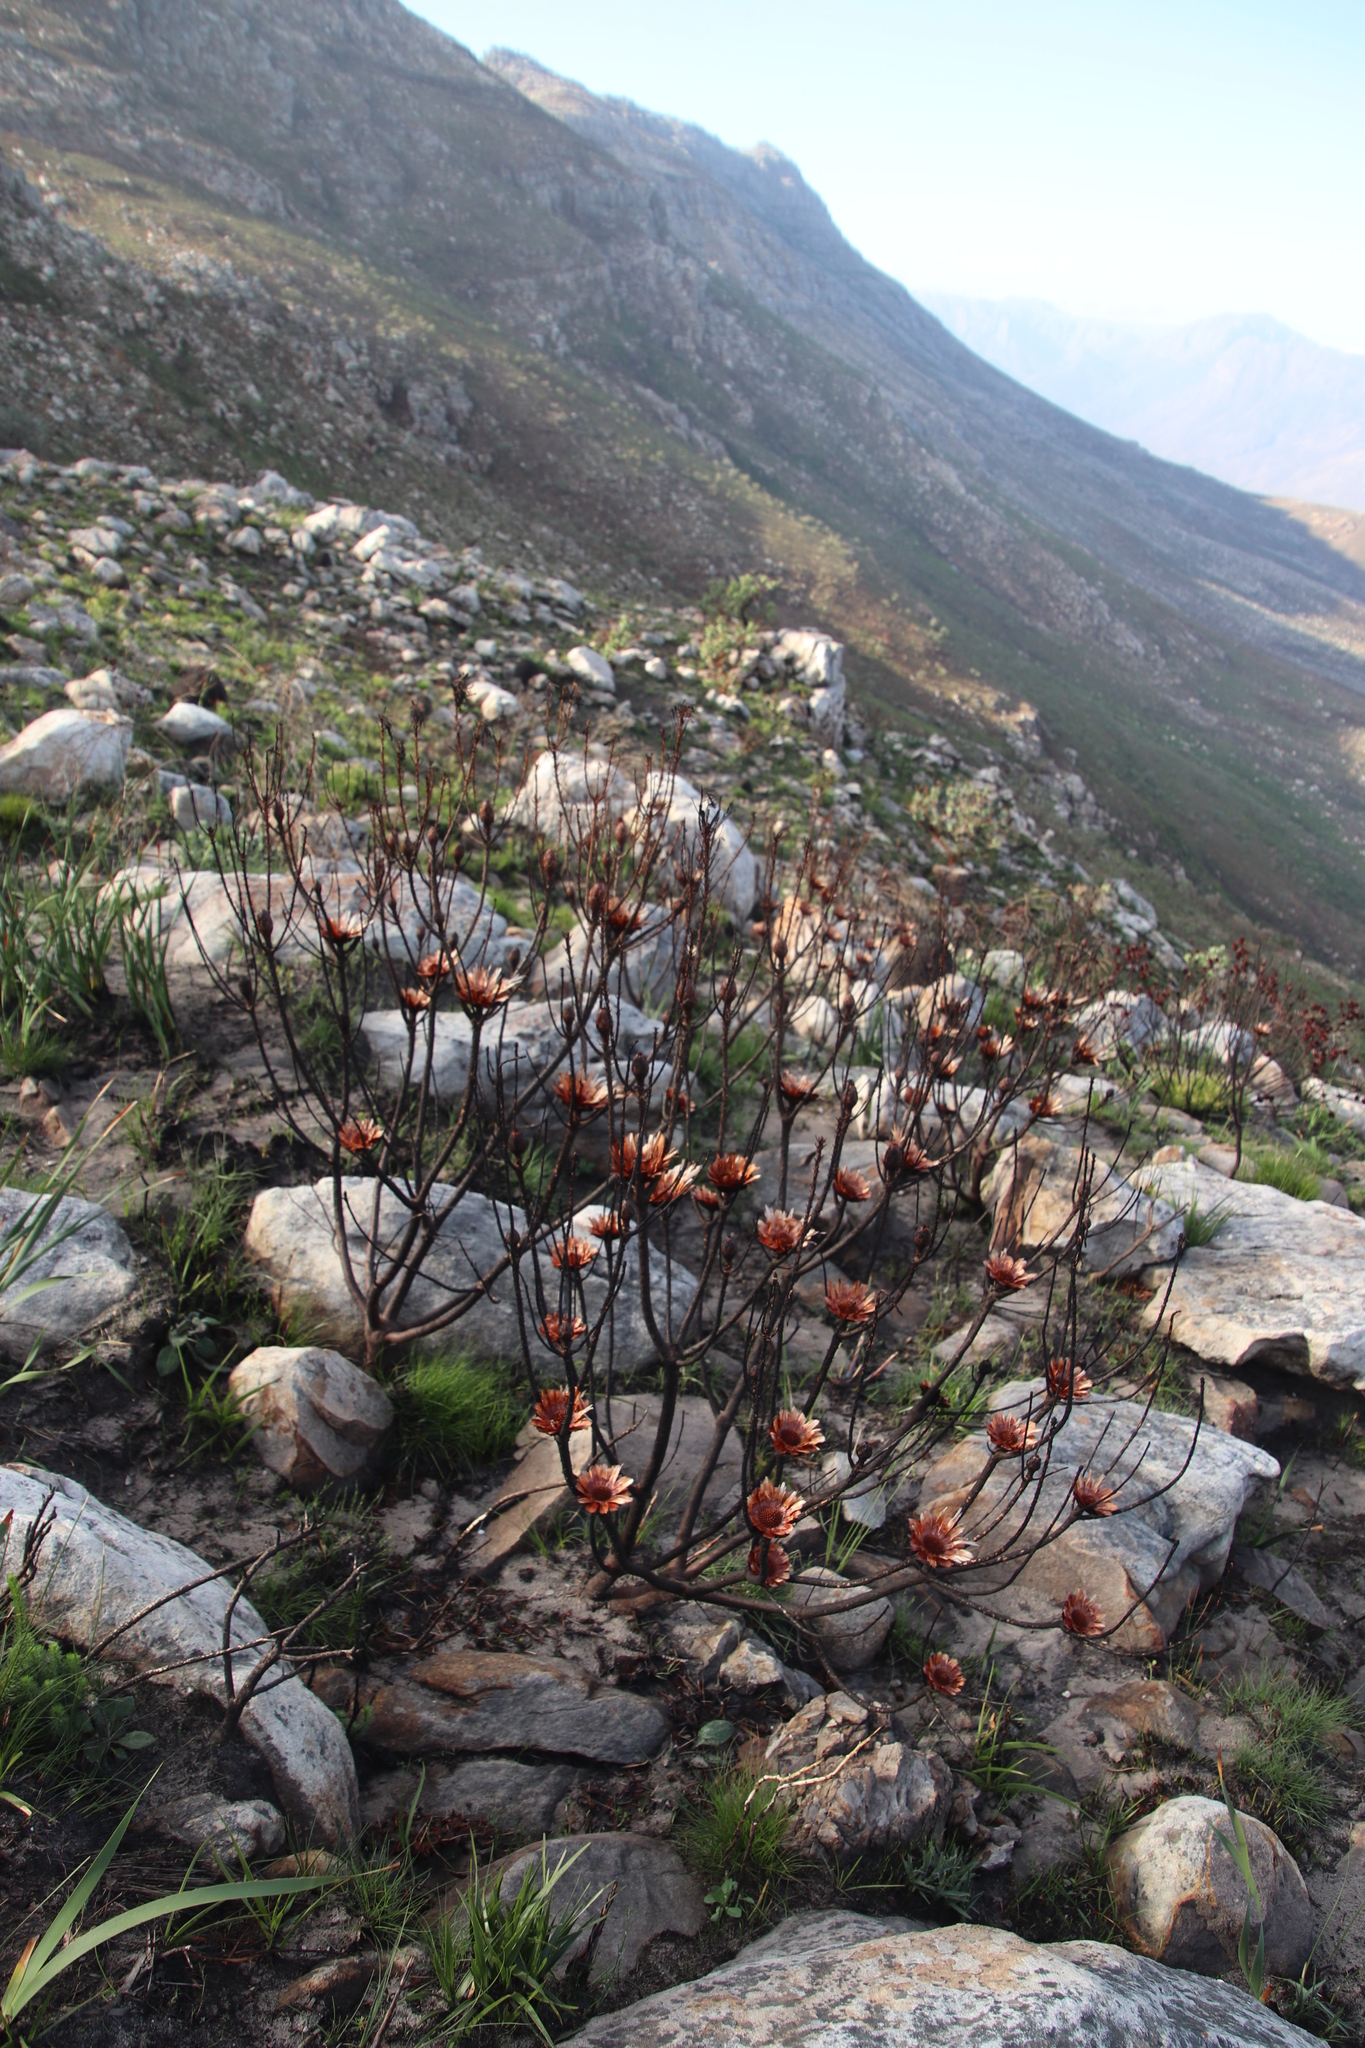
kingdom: Plantae
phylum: Tracheophyta
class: Magnoliopsida
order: Proteales
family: Proteaceae
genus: Protea
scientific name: Protea repens
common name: Sugarbush
